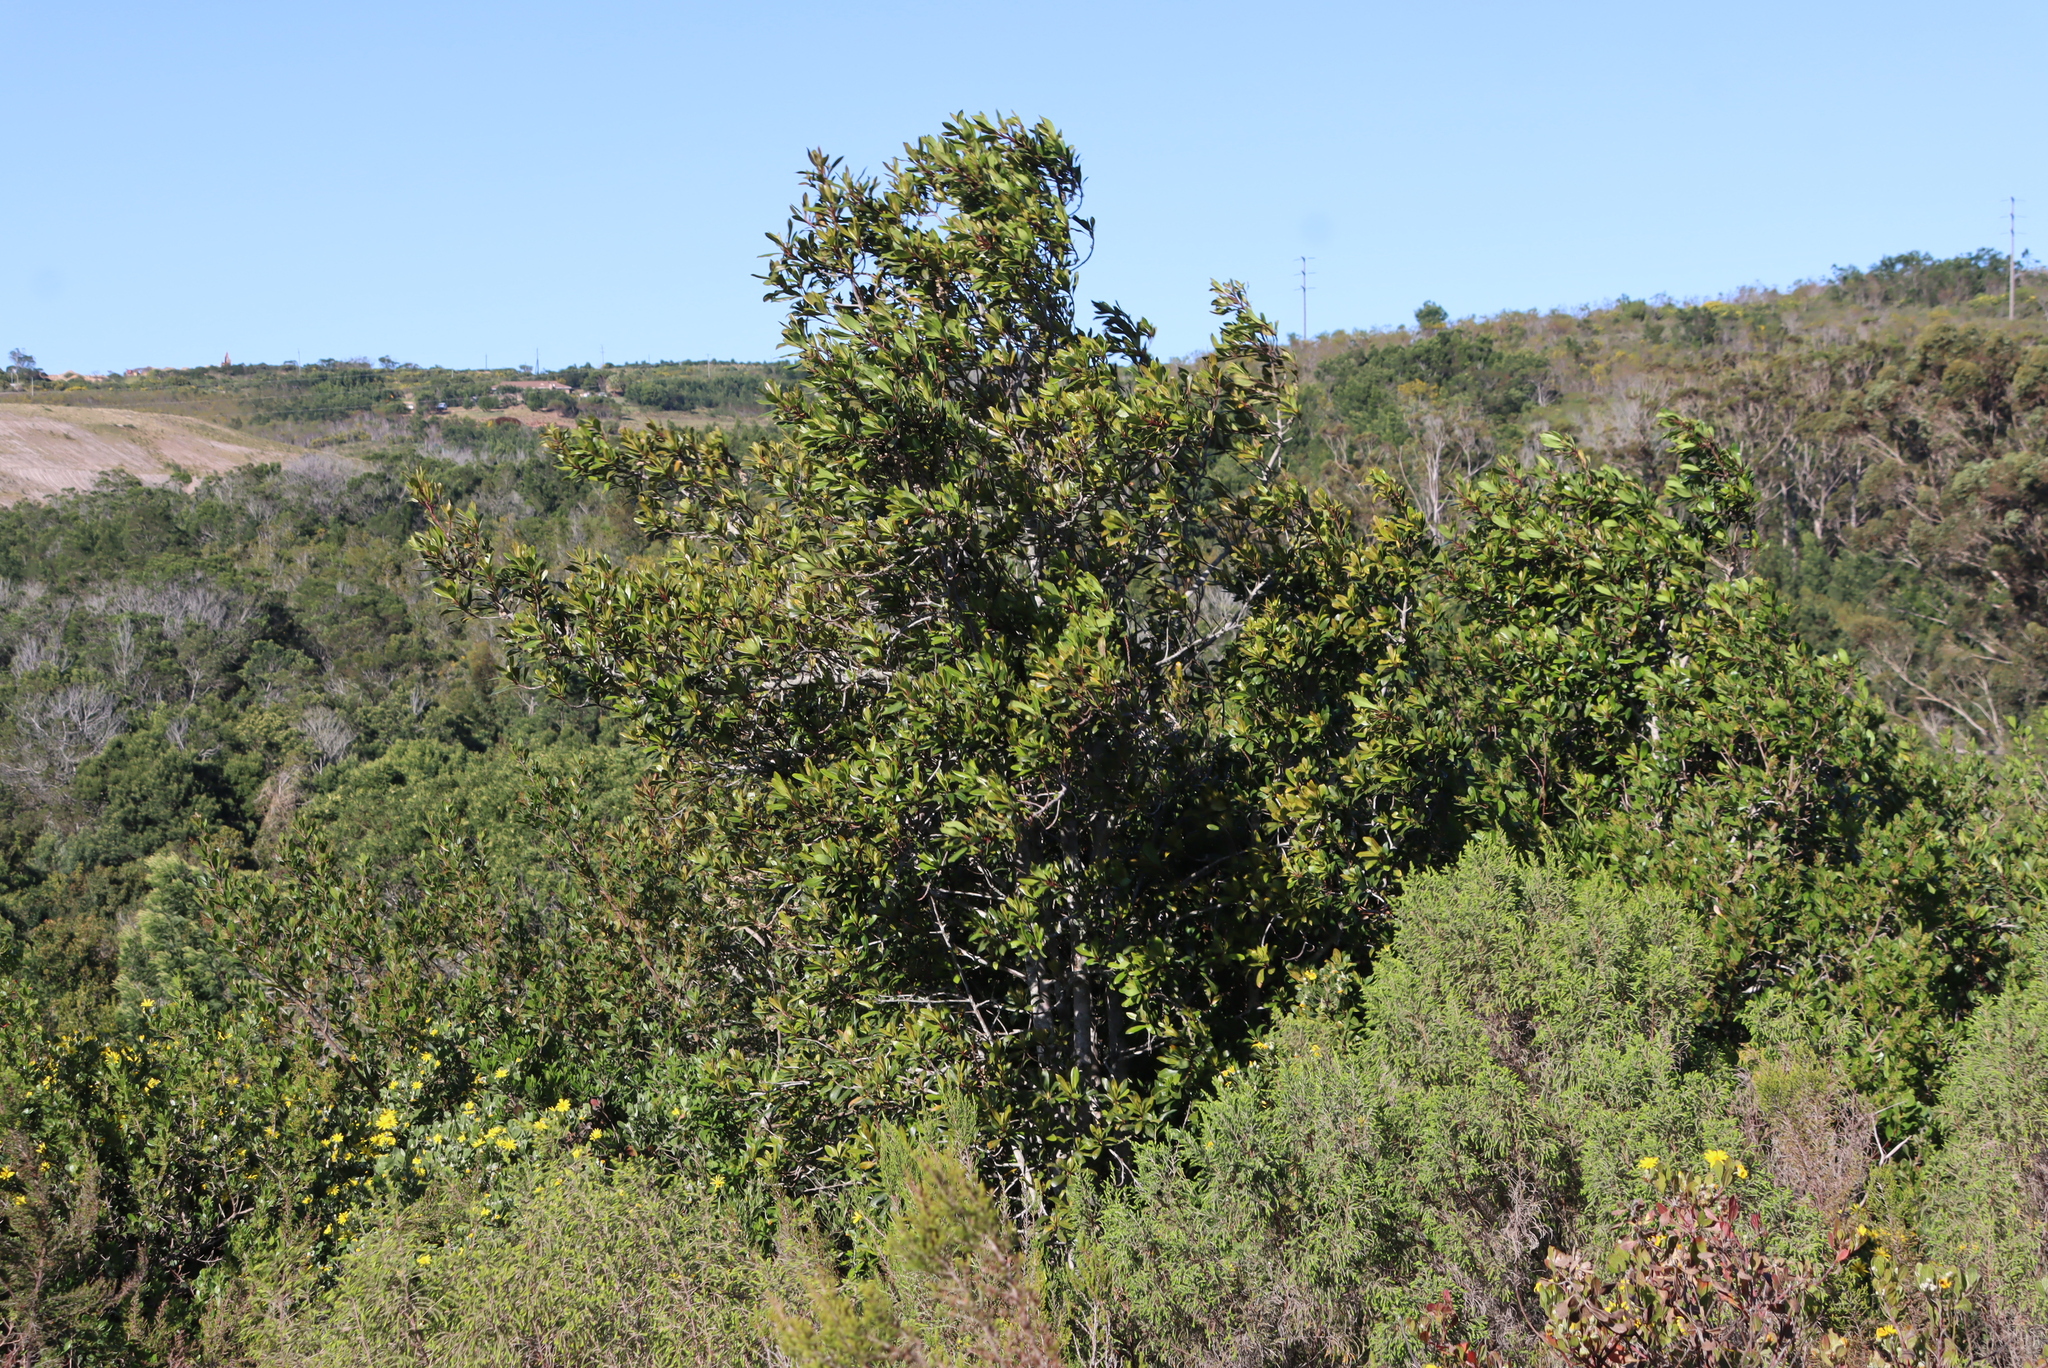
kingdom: Plantae
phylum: Tracheophyta
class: Magnoliopsida
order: Ericales
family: Primulaceae
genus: Myrsine
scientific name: Myrsine melanophloeos
